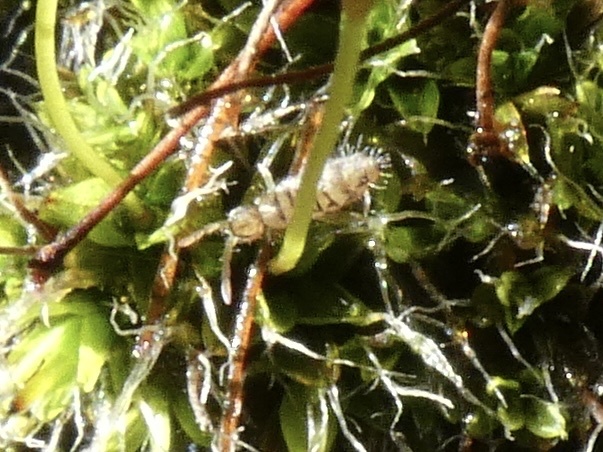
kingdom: Animalia
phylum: Arthropoda
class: Collembola
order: Entomobryomorpha
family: Entomobryidae
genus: Entomobrya
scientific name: Entomobrya multifasciata
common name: Springtail
